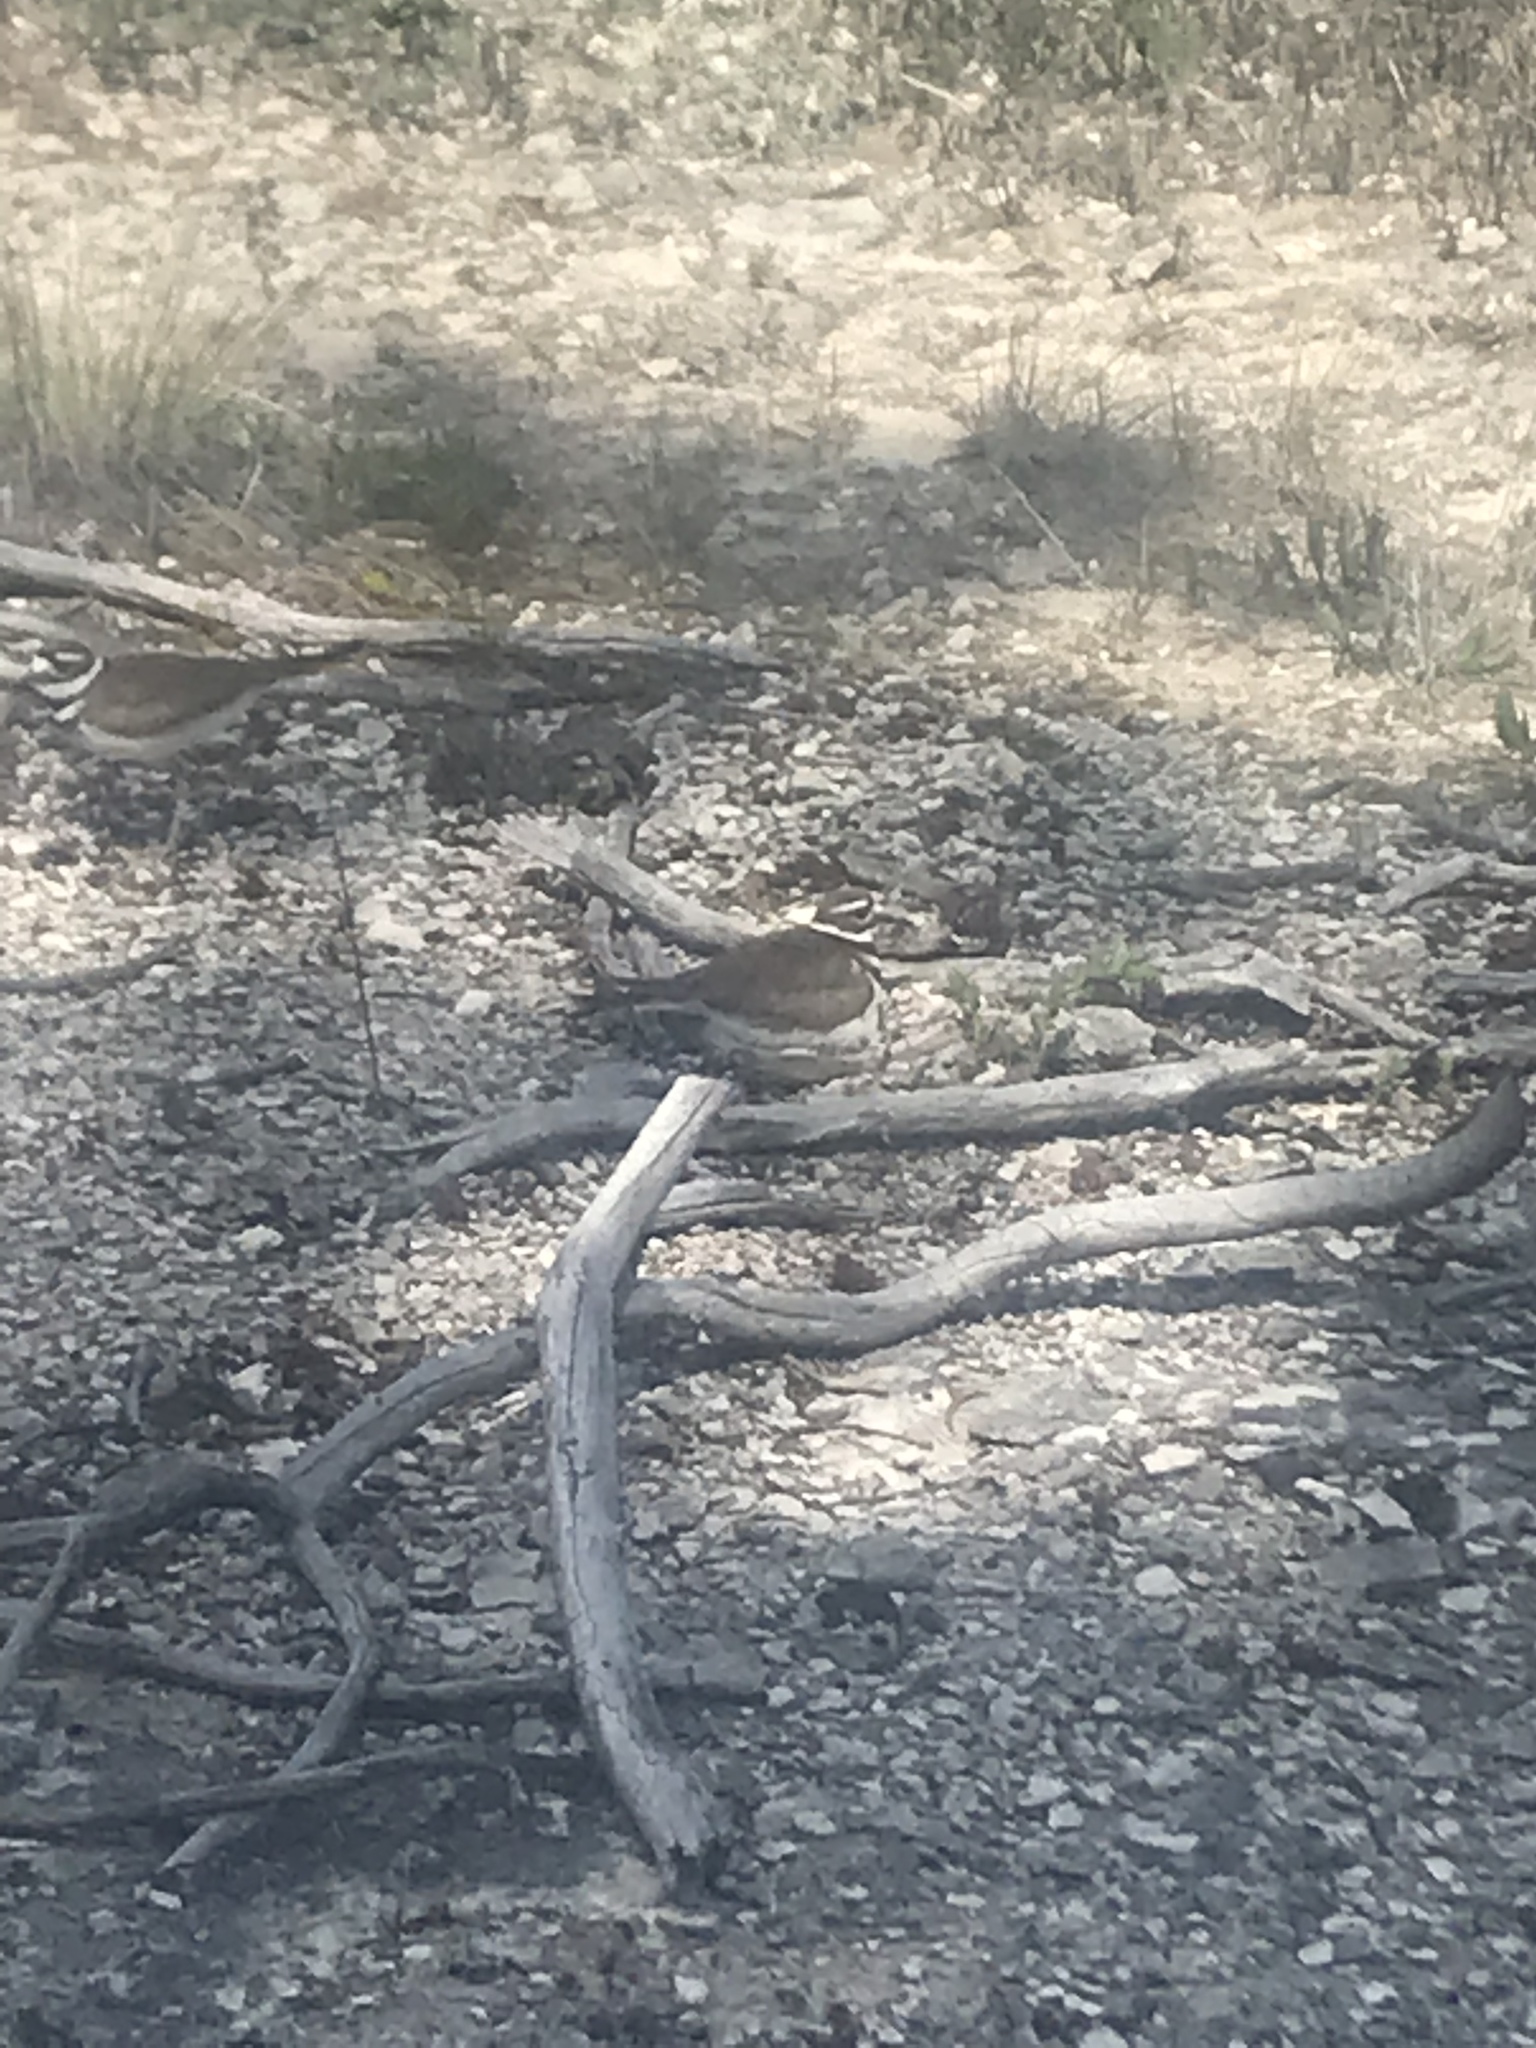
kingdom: Animalia
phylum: Chordata
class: Aves
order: Charadriiformes
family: Charadriidae
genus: Charadrius
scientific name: Charadrius vociferus
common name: Killdeer
